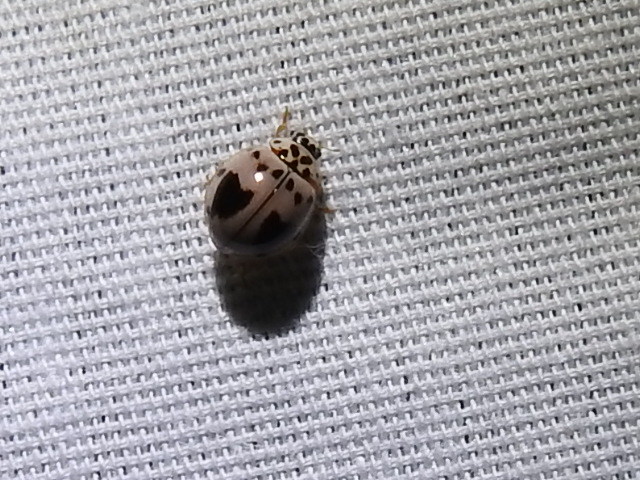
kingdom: Animalia
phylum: Arthropoda
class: Insecta
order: Coleoptera
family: Coccinellidae
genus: Olla
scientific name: Olla v-nigrum
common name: Ashy gray lady beetle
